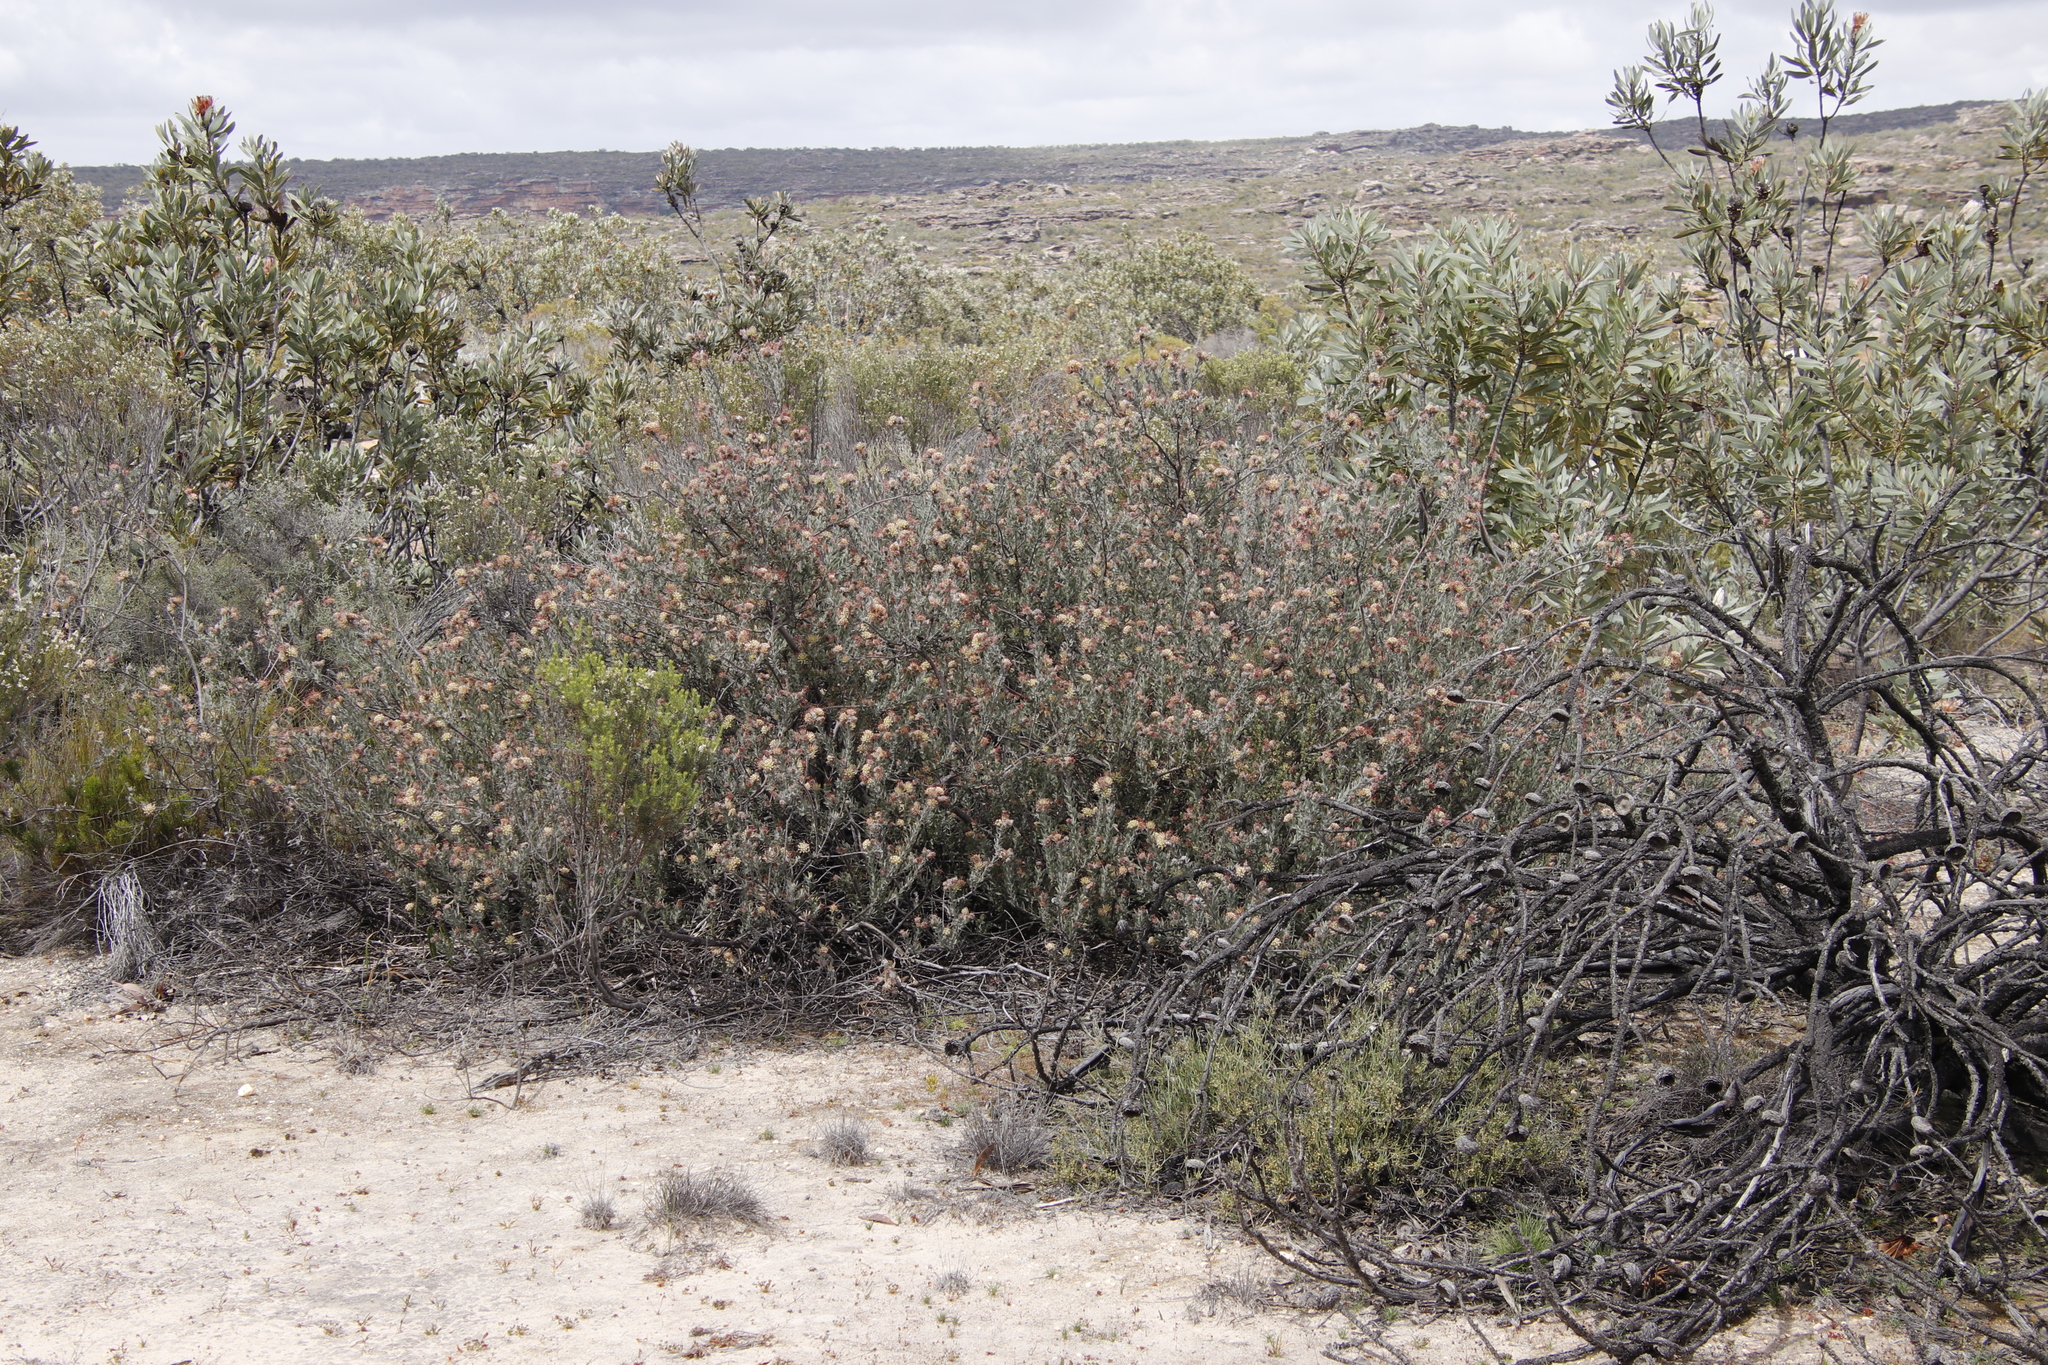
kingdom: Plantae
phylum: Tracheophyta
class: Magnoliopsida
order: Proteales
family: Proteaceae
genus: Leucospermum
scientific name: Leucospermum calligerum
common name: Arid pincushion
